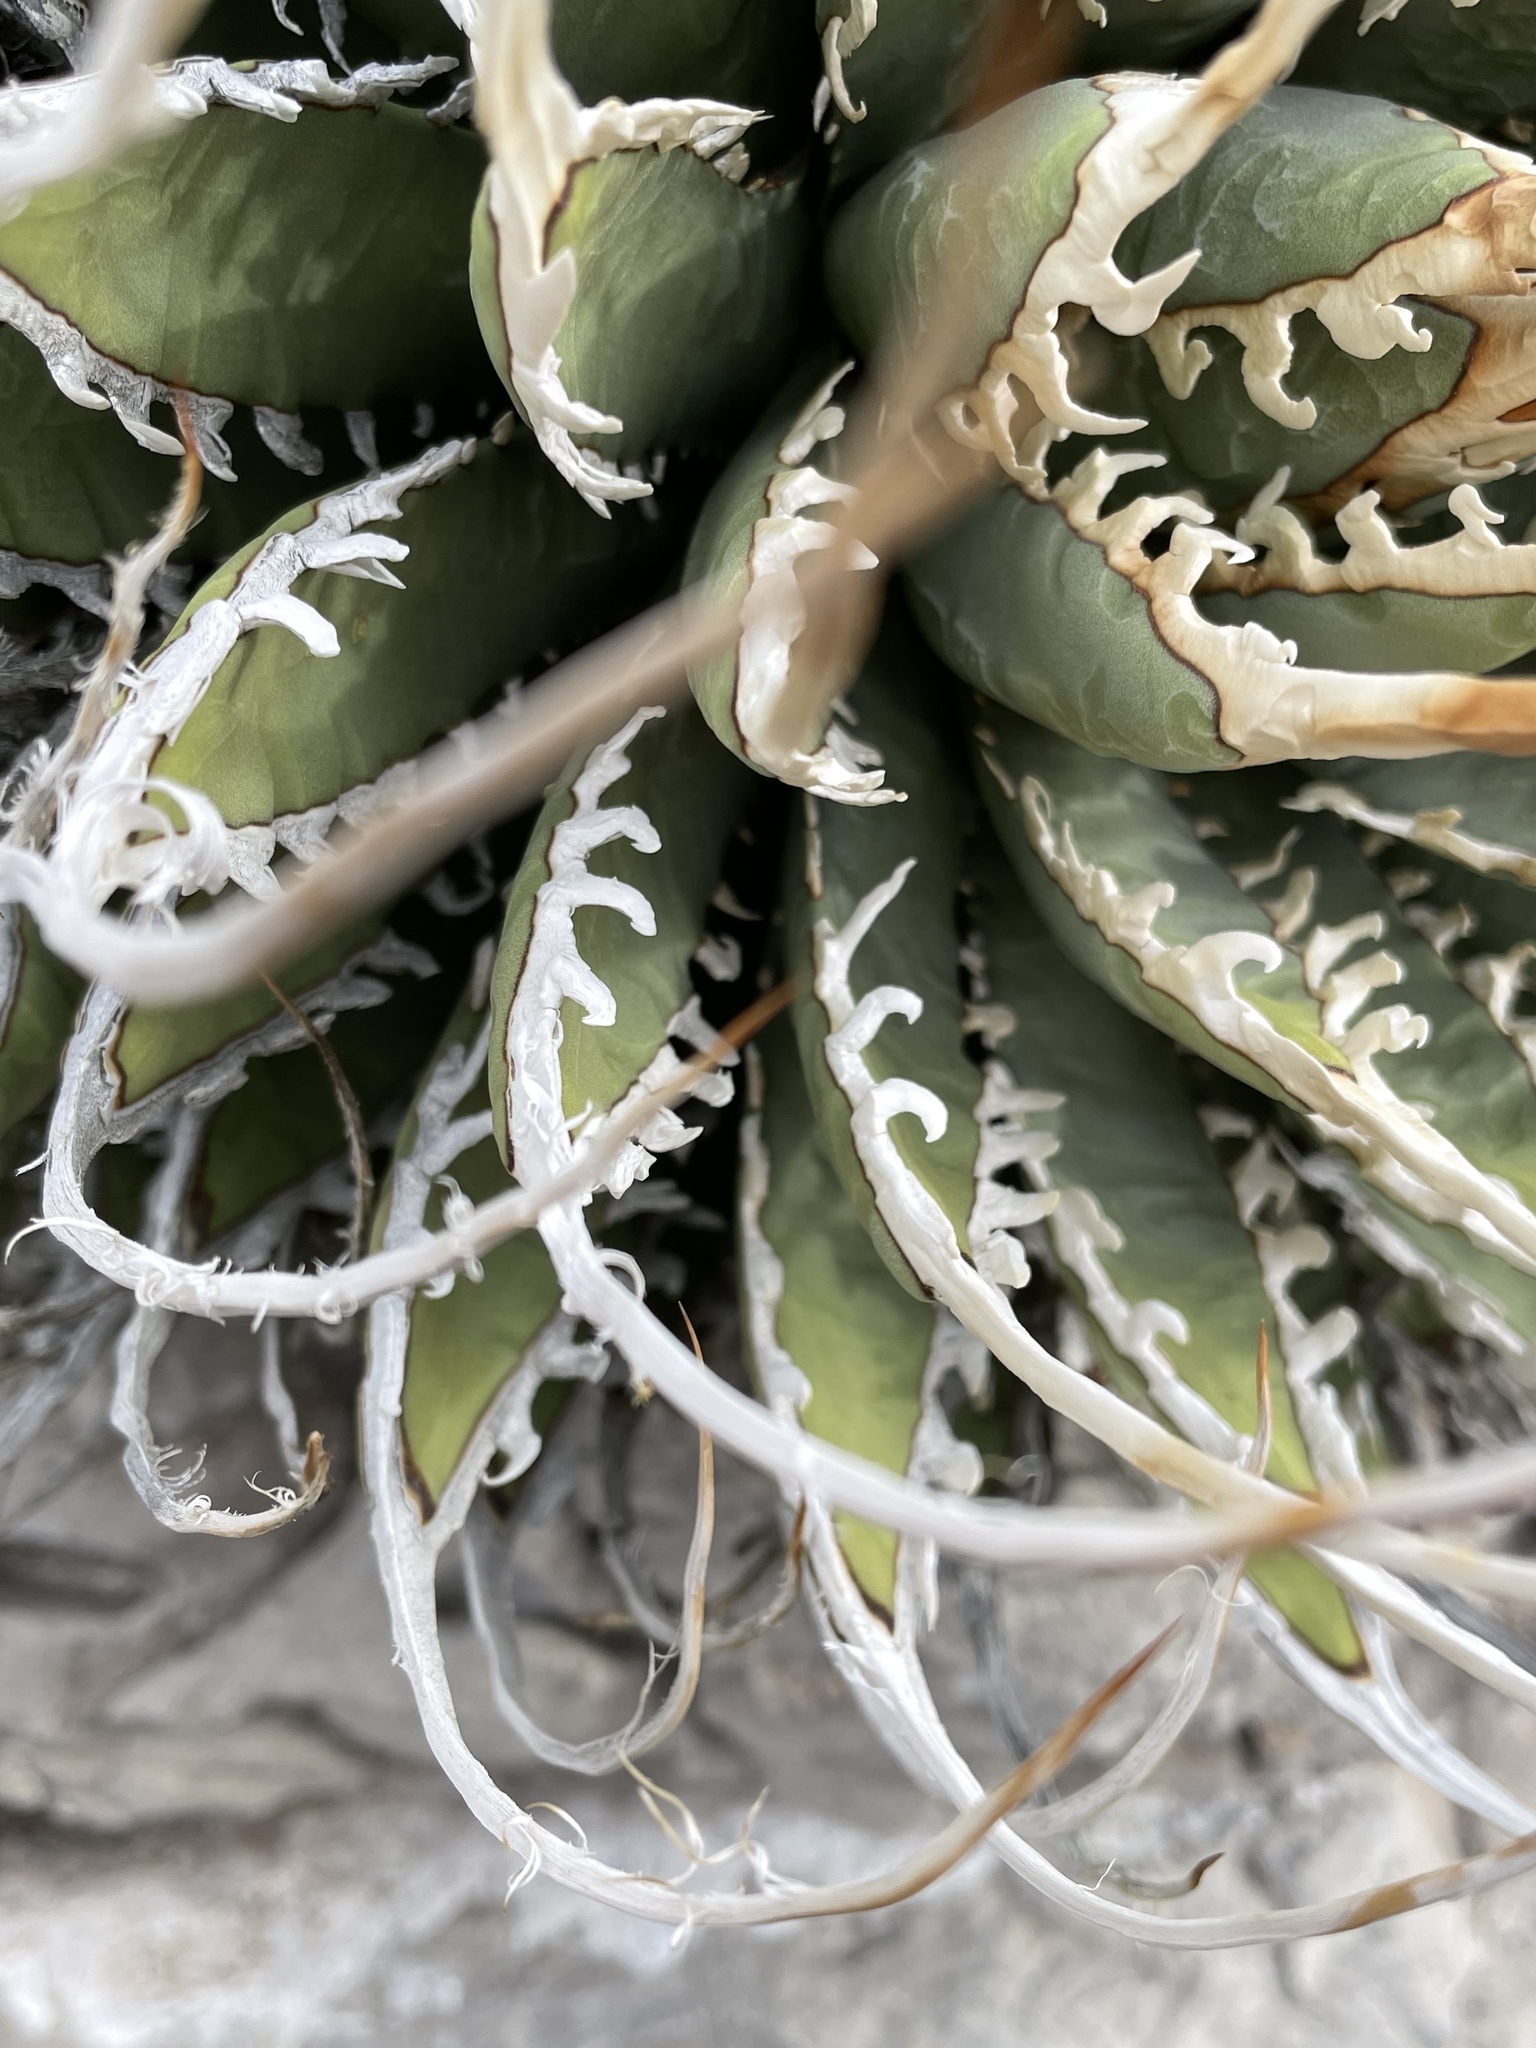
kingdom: Plantae
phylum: Tracheophyta
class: Liliopsida
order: Asparagales
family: Asparagaceae
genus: Agave
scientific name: Agave utahensis
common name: Utah agave
